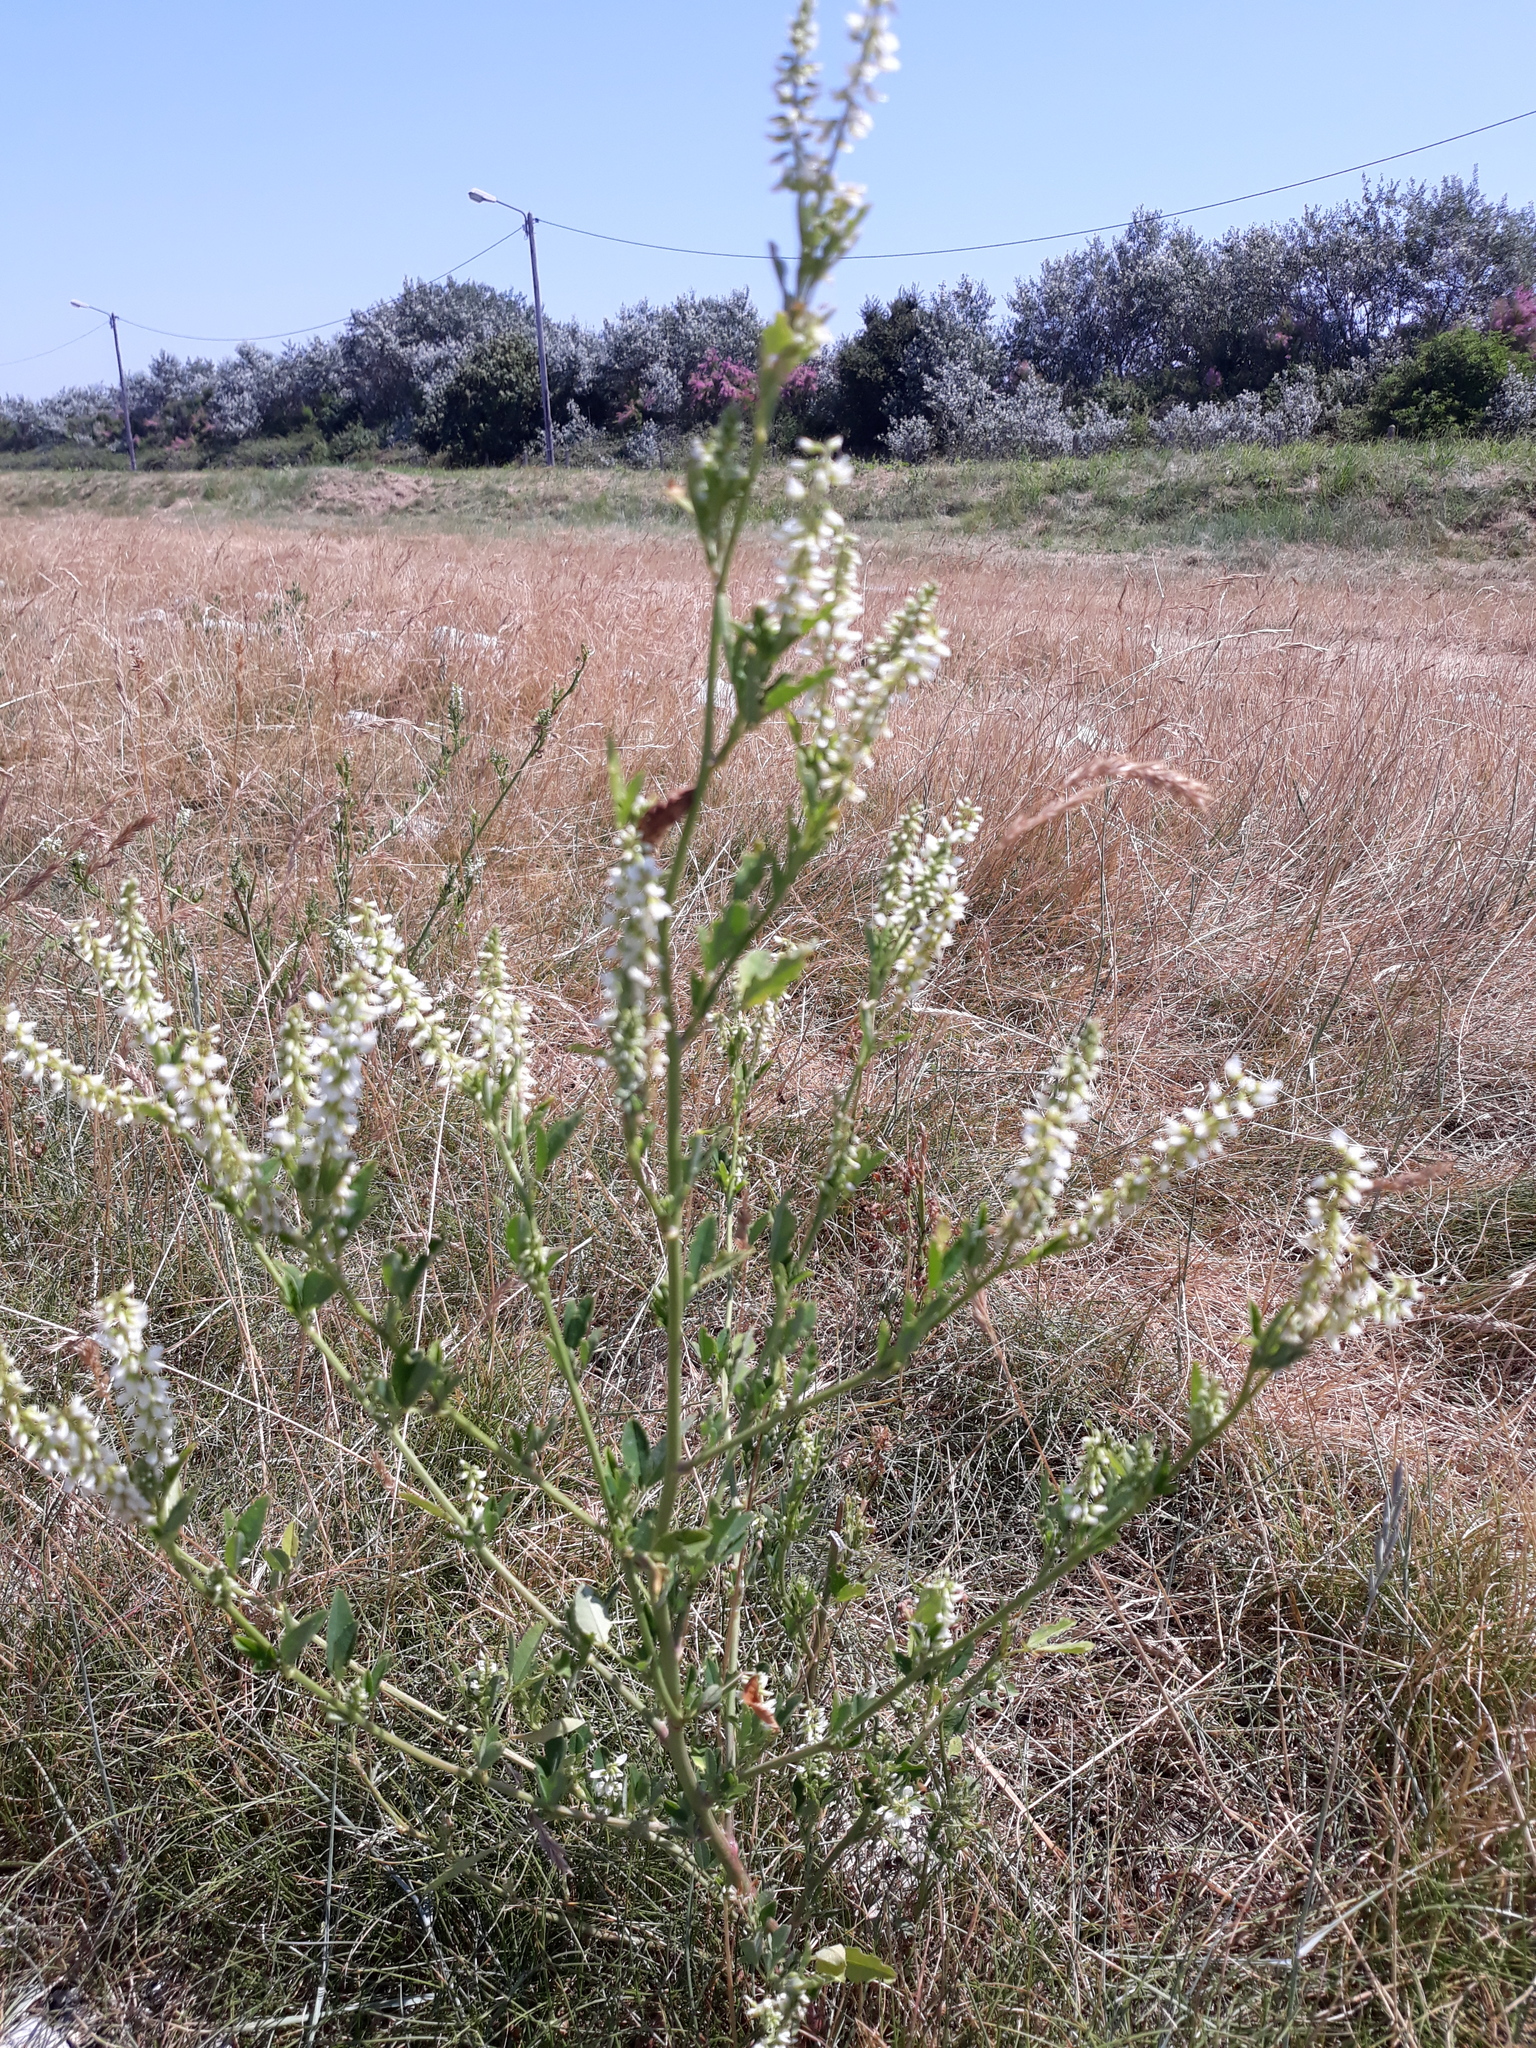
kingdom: Plantae
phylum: Tracheophyta
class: Magnoliopsida
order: Fabales
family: Fabaceae
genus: Melilotus
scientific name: Melilotus albus
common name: White melilot
